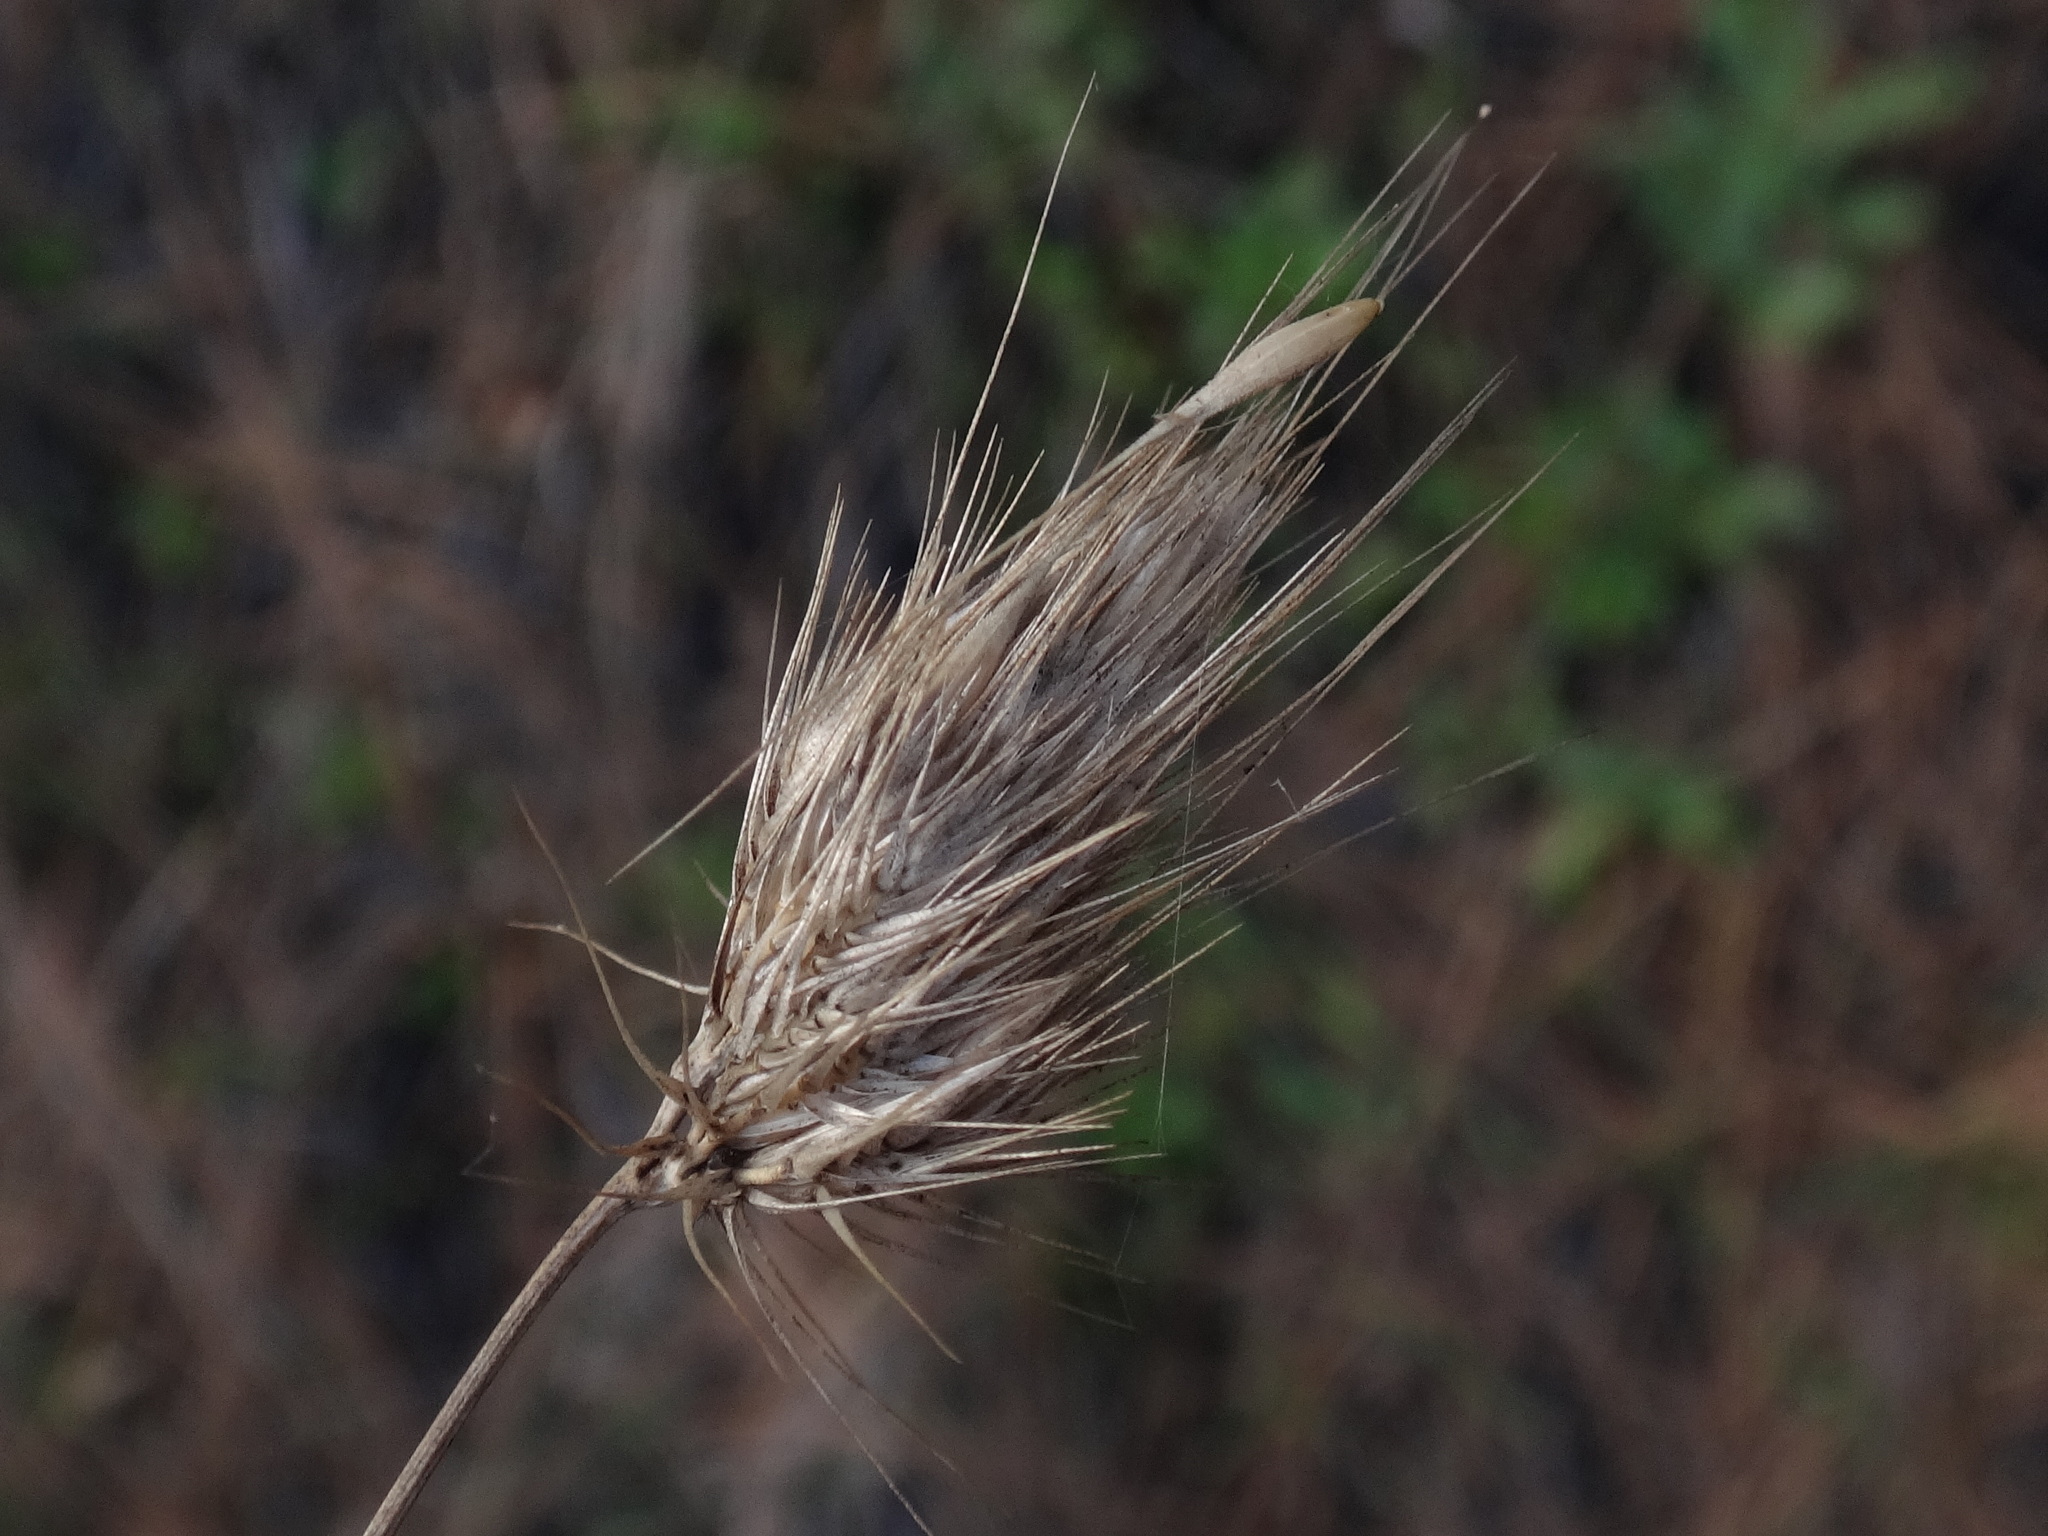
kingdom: Plantae
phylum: Tracheophyta
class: Liliopsida
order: Poales
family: Poaceae
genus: Cynosurus
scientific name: Cynosurus echinatus
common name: Rough dog's-tail
